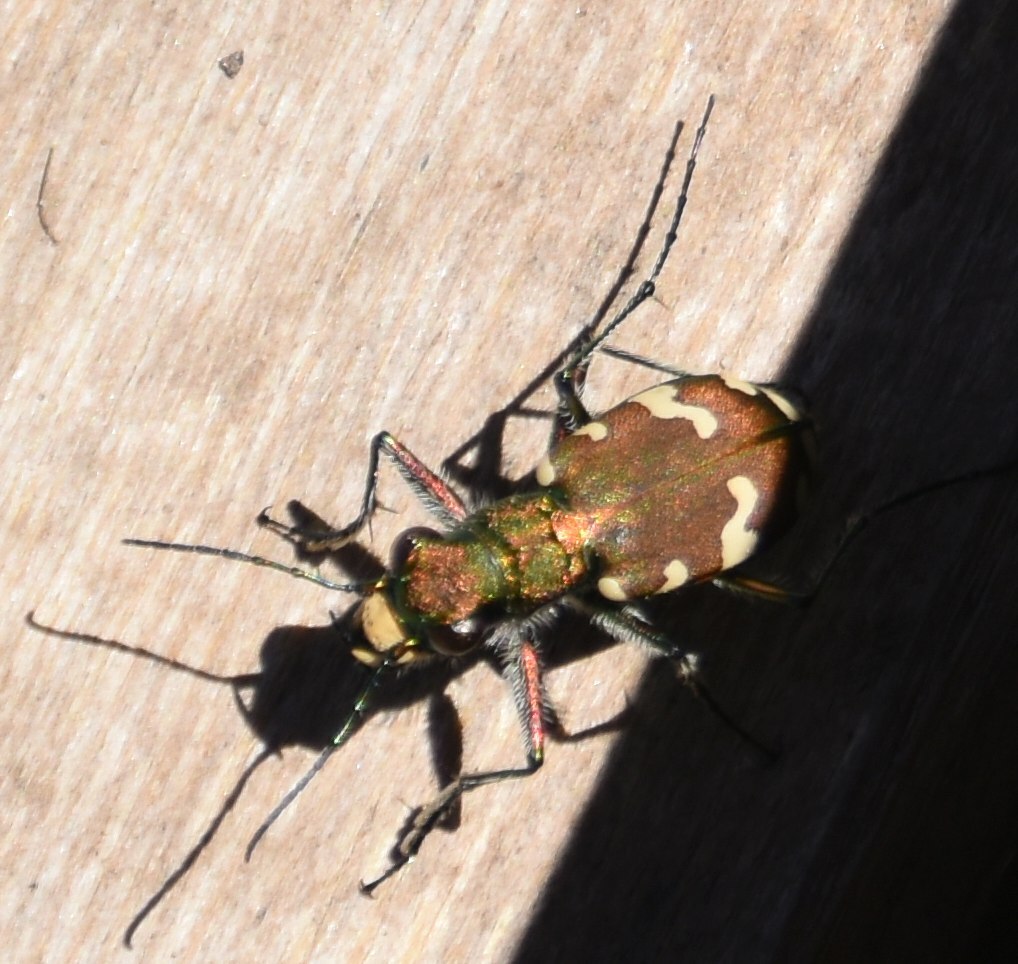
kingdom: Animalia
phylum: Arthropoda
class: Insecta
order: Coleoptera
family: Carabidae
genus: Cicindela
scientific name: Cicindela sylvicola
